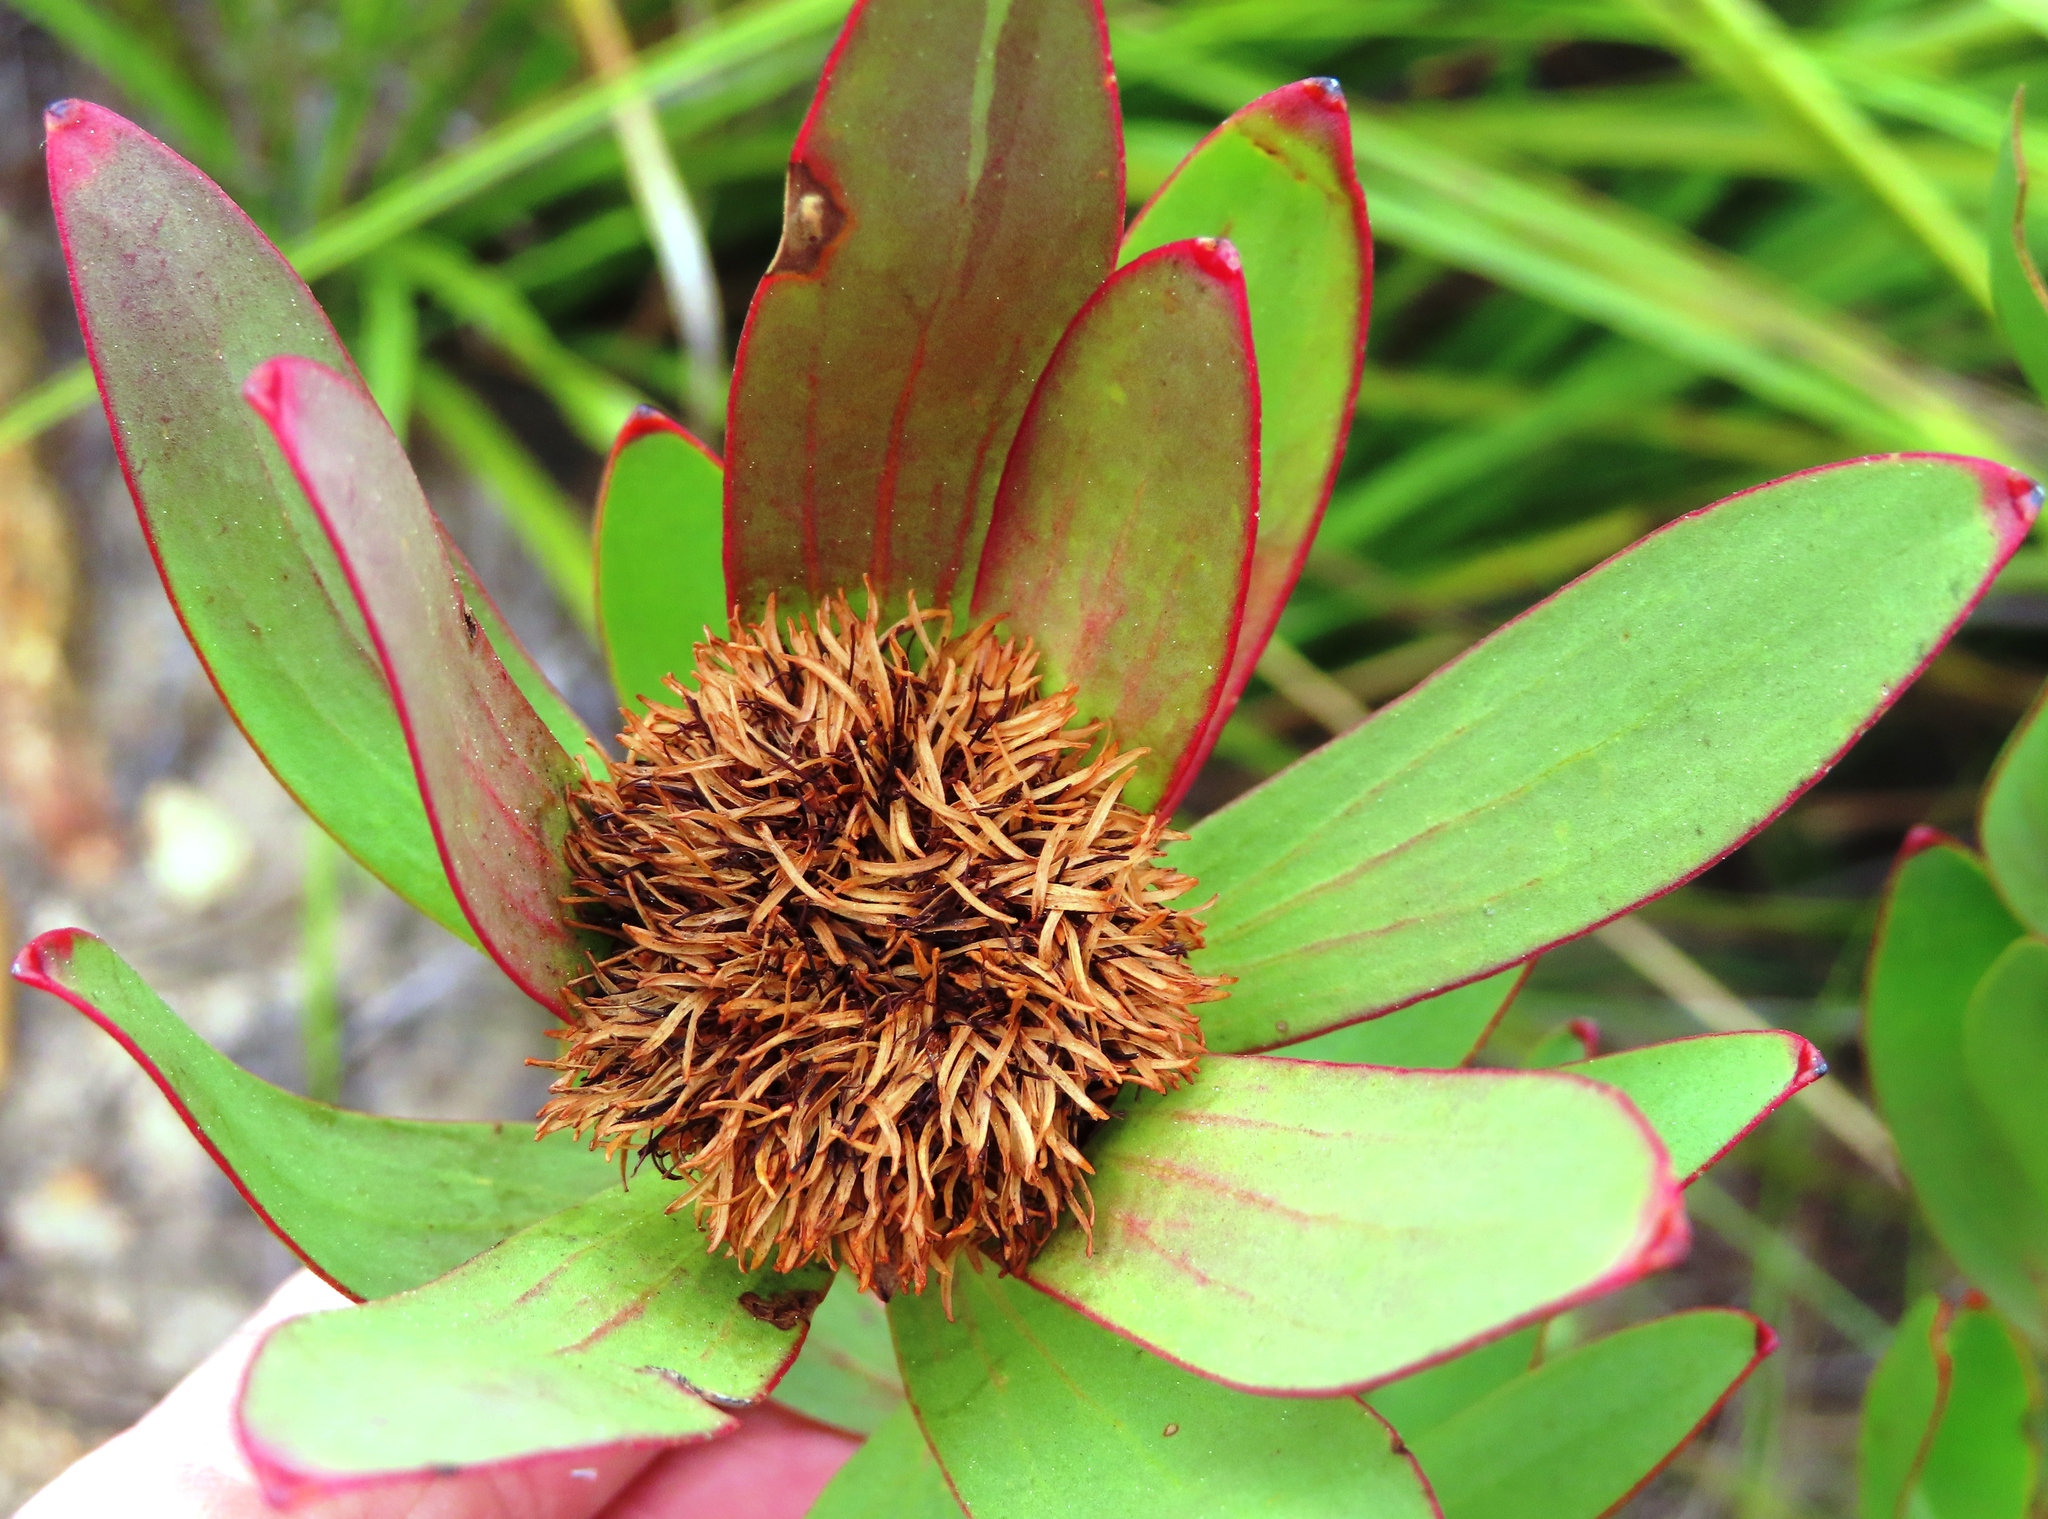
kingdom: Plantae
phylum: Tracheophyta
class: Magnoliopsida
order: Proteales
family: Proteaceae
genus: Leucadendron
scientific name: Leucadendron sessile
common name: Western sunbush
